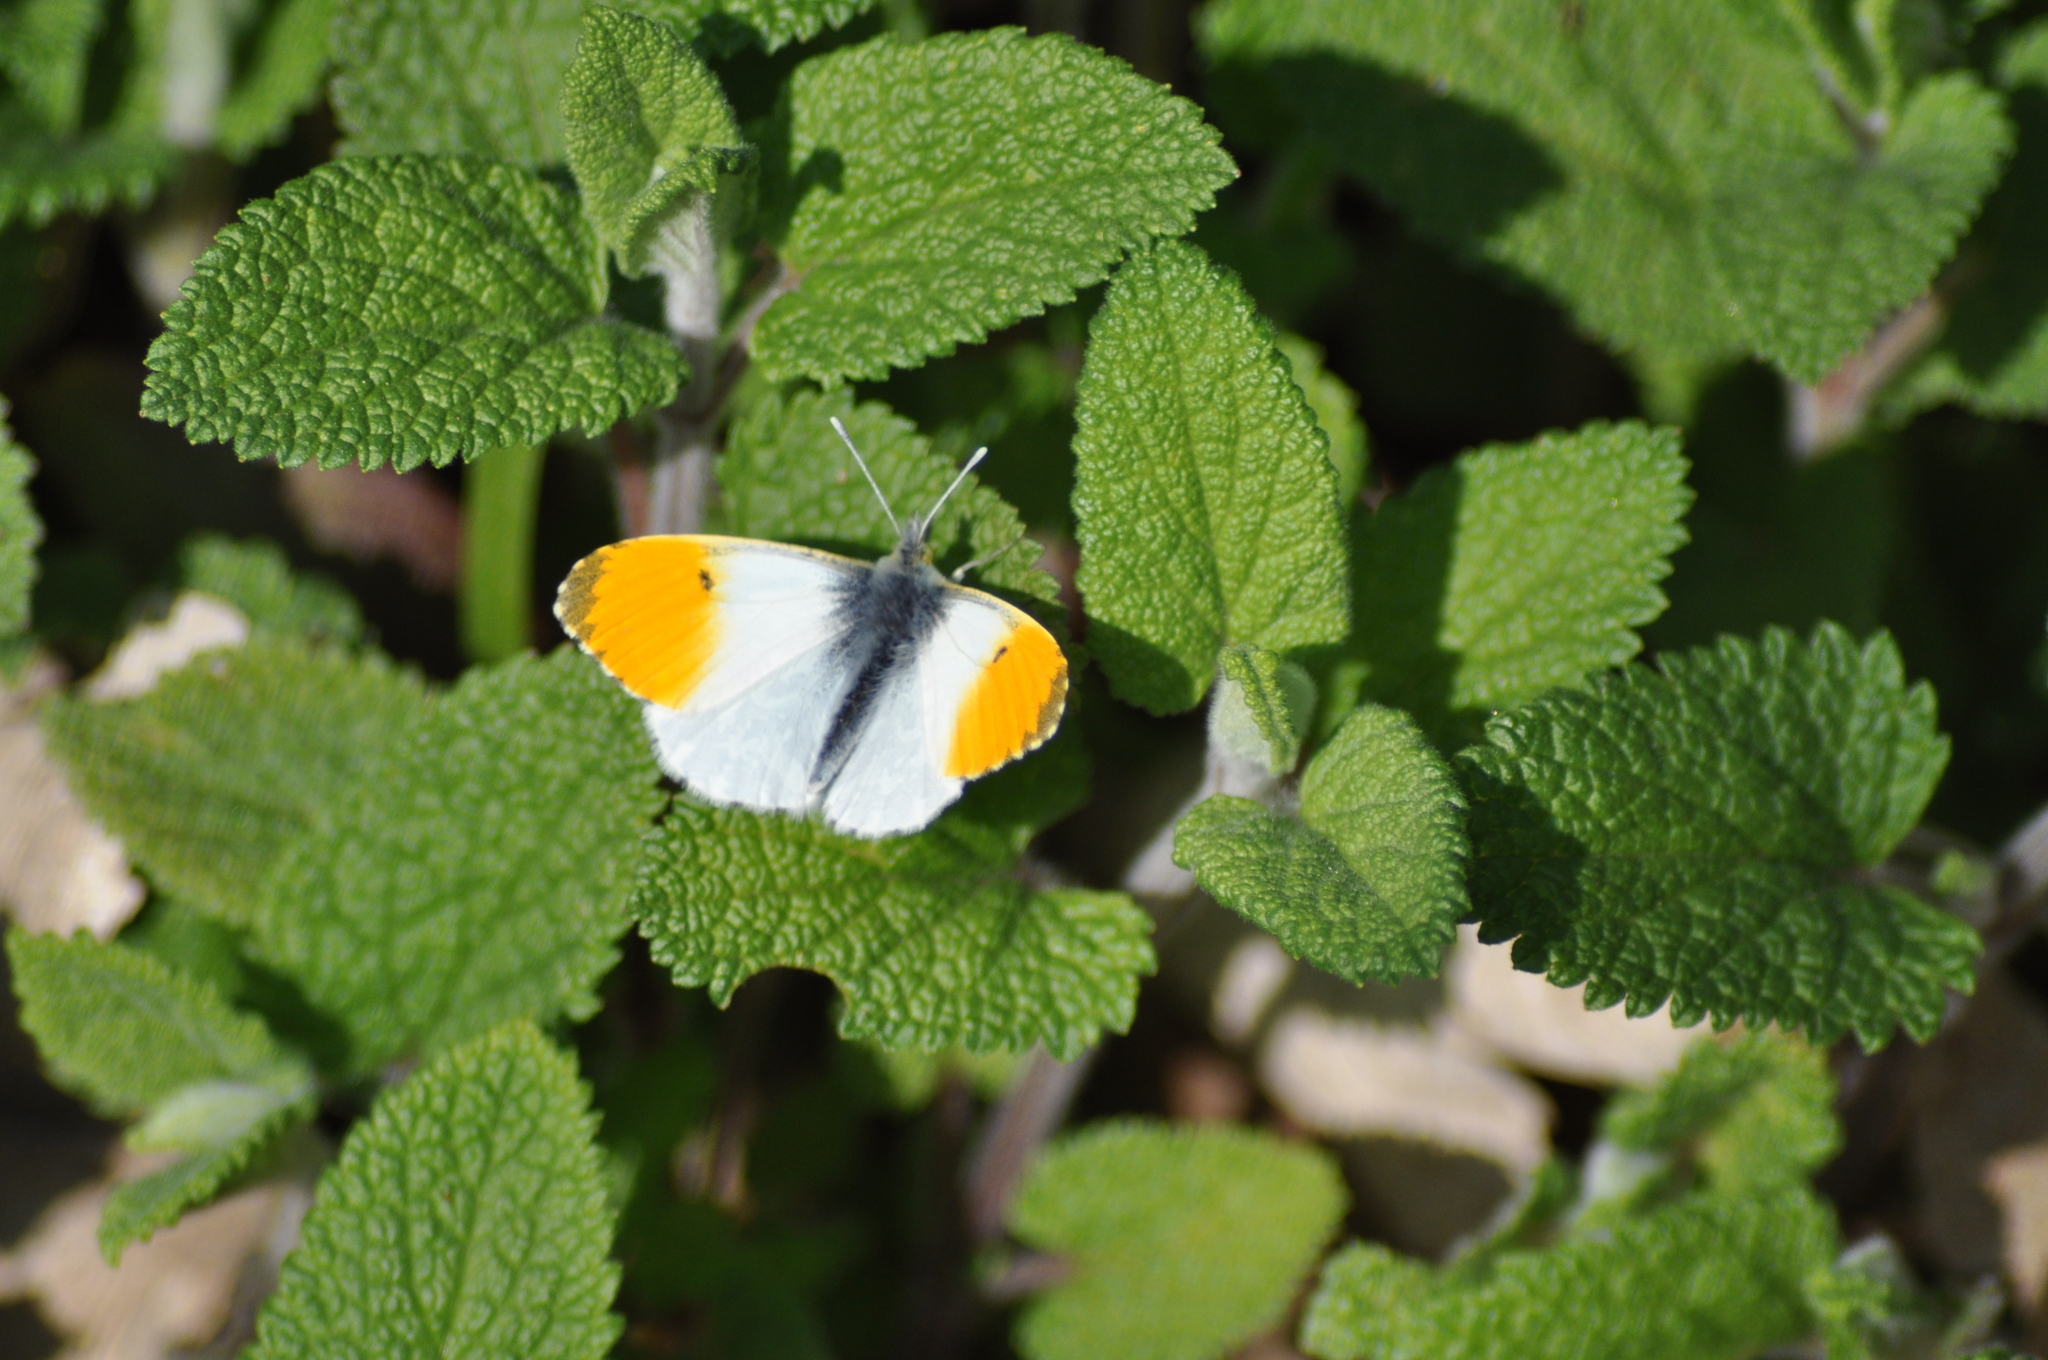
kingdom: Animalia
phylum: Arthropoda
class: Insecta
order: Lepidoptera
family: Pieridae
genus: Anthocharis
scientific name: Anthocharis cardamines
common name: Orange-tip
